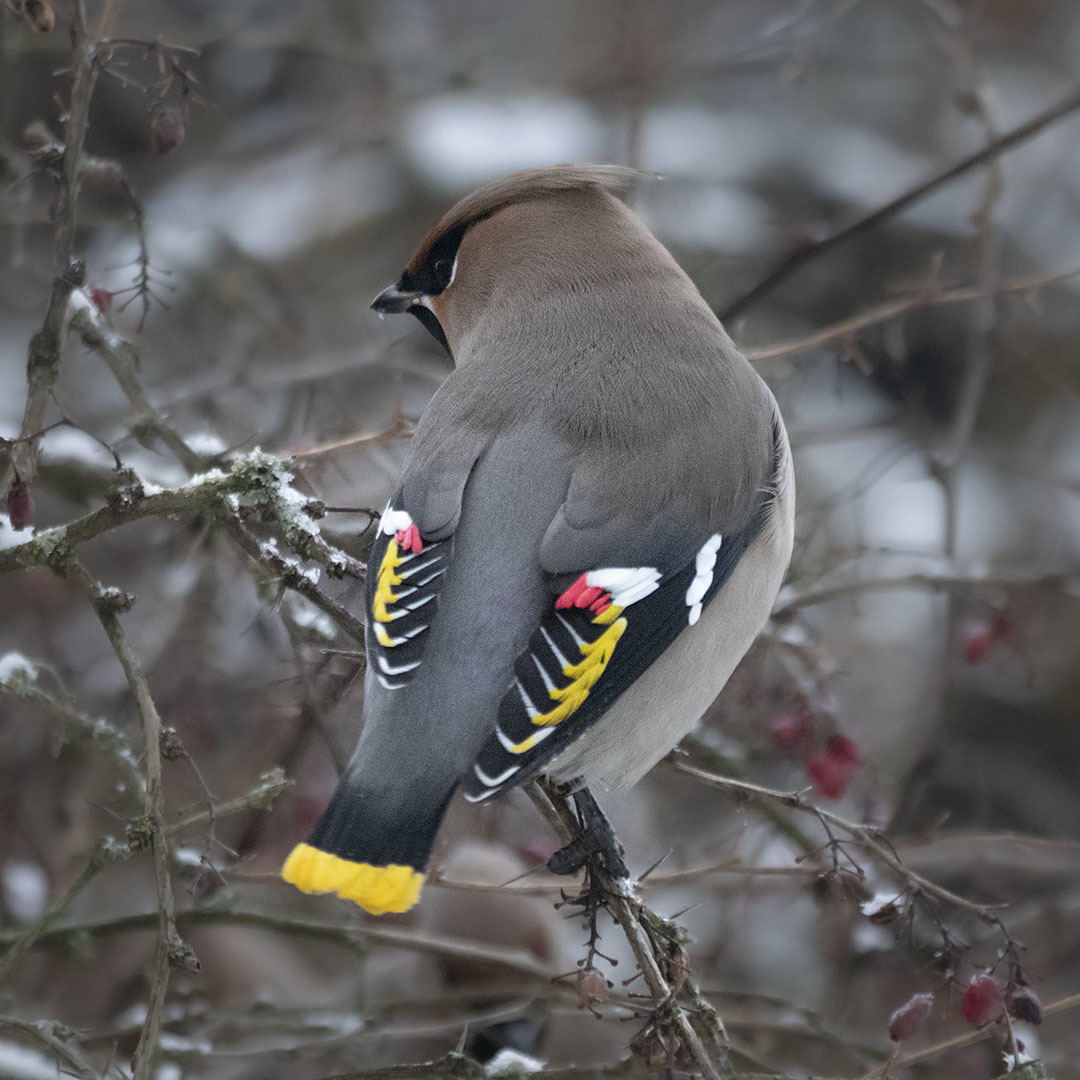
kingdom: Animalia
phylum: Chordata
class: Aves
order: Passeriformes
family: Bombycillidae
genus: Bombycilla
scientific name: Bombycilla garrulus
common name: Bohemian waxwing
